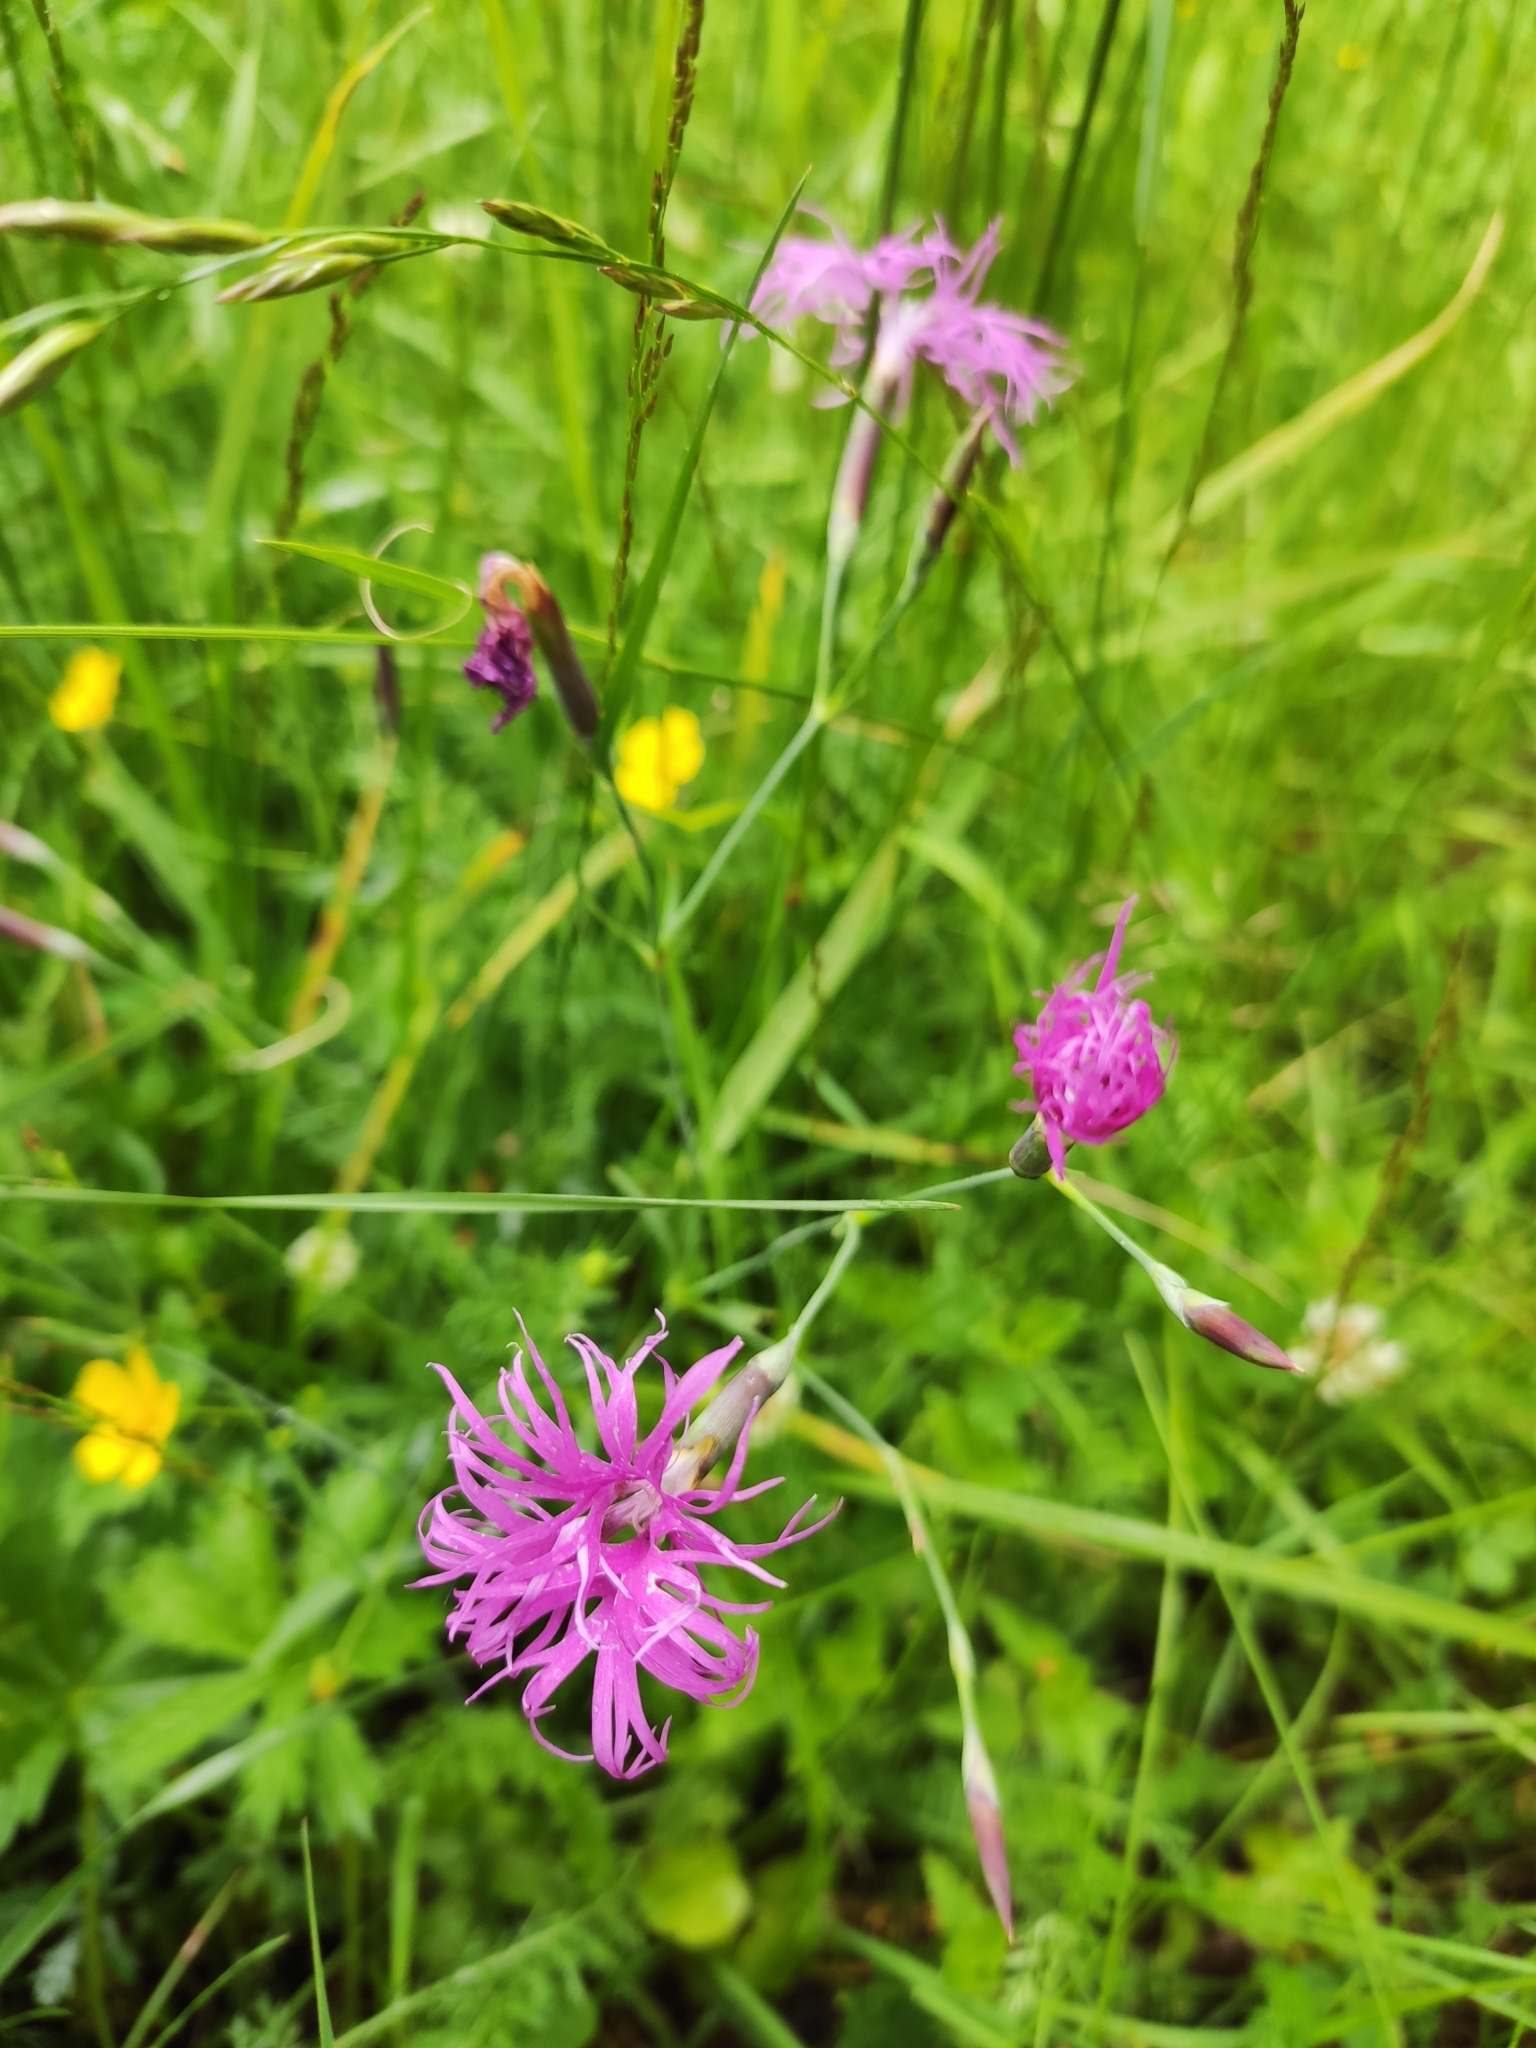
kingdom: Plantae
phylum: Tracheophyta
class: Magnoliopsida
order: Caryophyllales
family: Caryophyllaceae
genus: Dianthus
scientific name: Dianthus superbus
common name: Fringed pink
